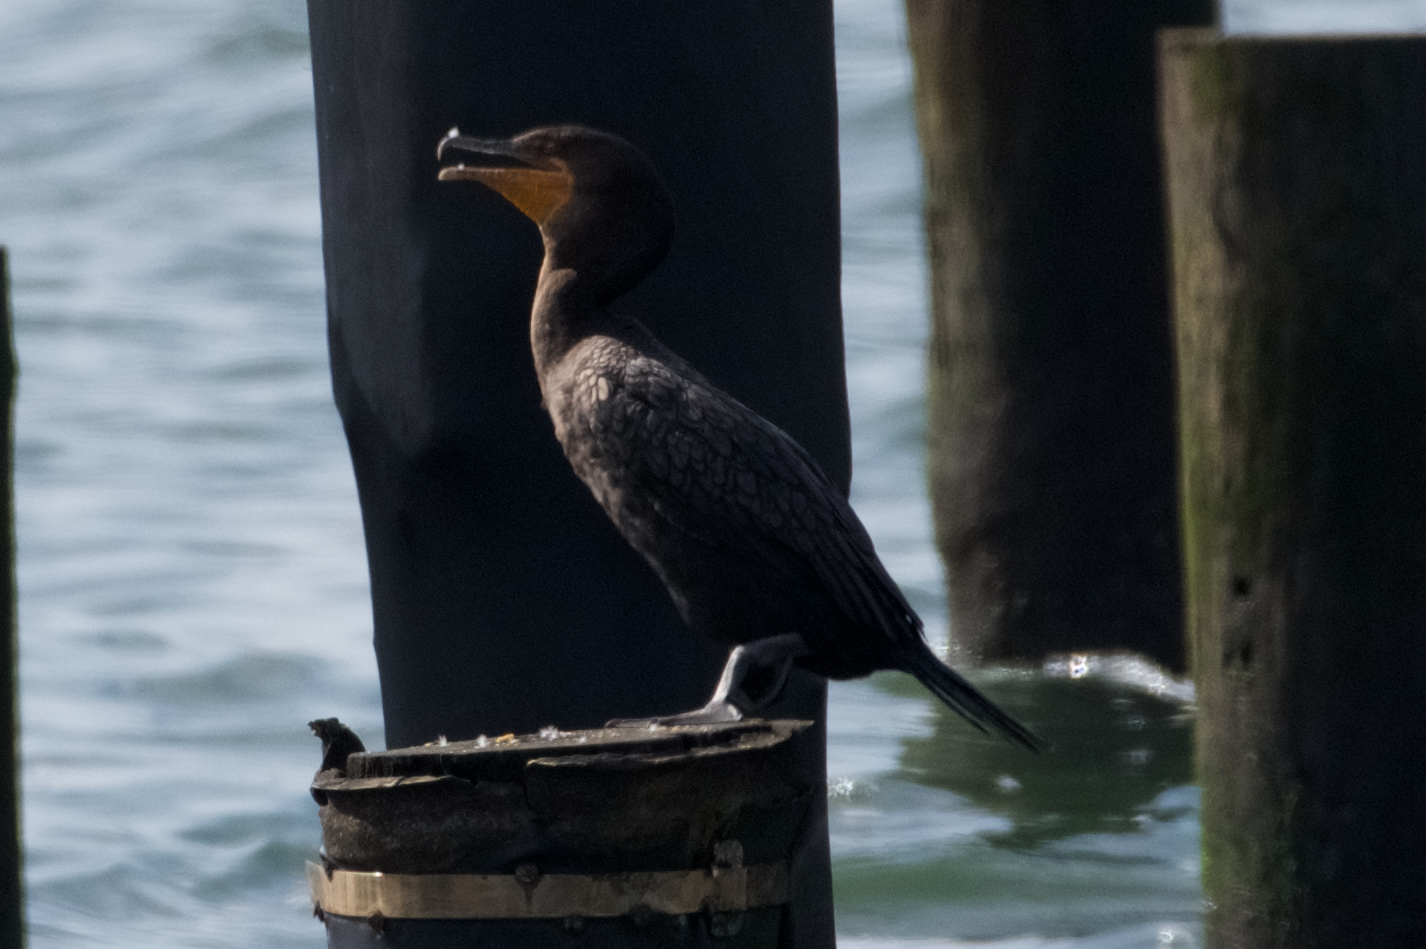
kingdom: Animalia
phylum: Chordata
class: Aves
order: Suliformes
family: Phalacrocoracidae
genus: Phalacrocorax
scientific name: Phalacrocorax auritus
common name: Double-crested cormorant
